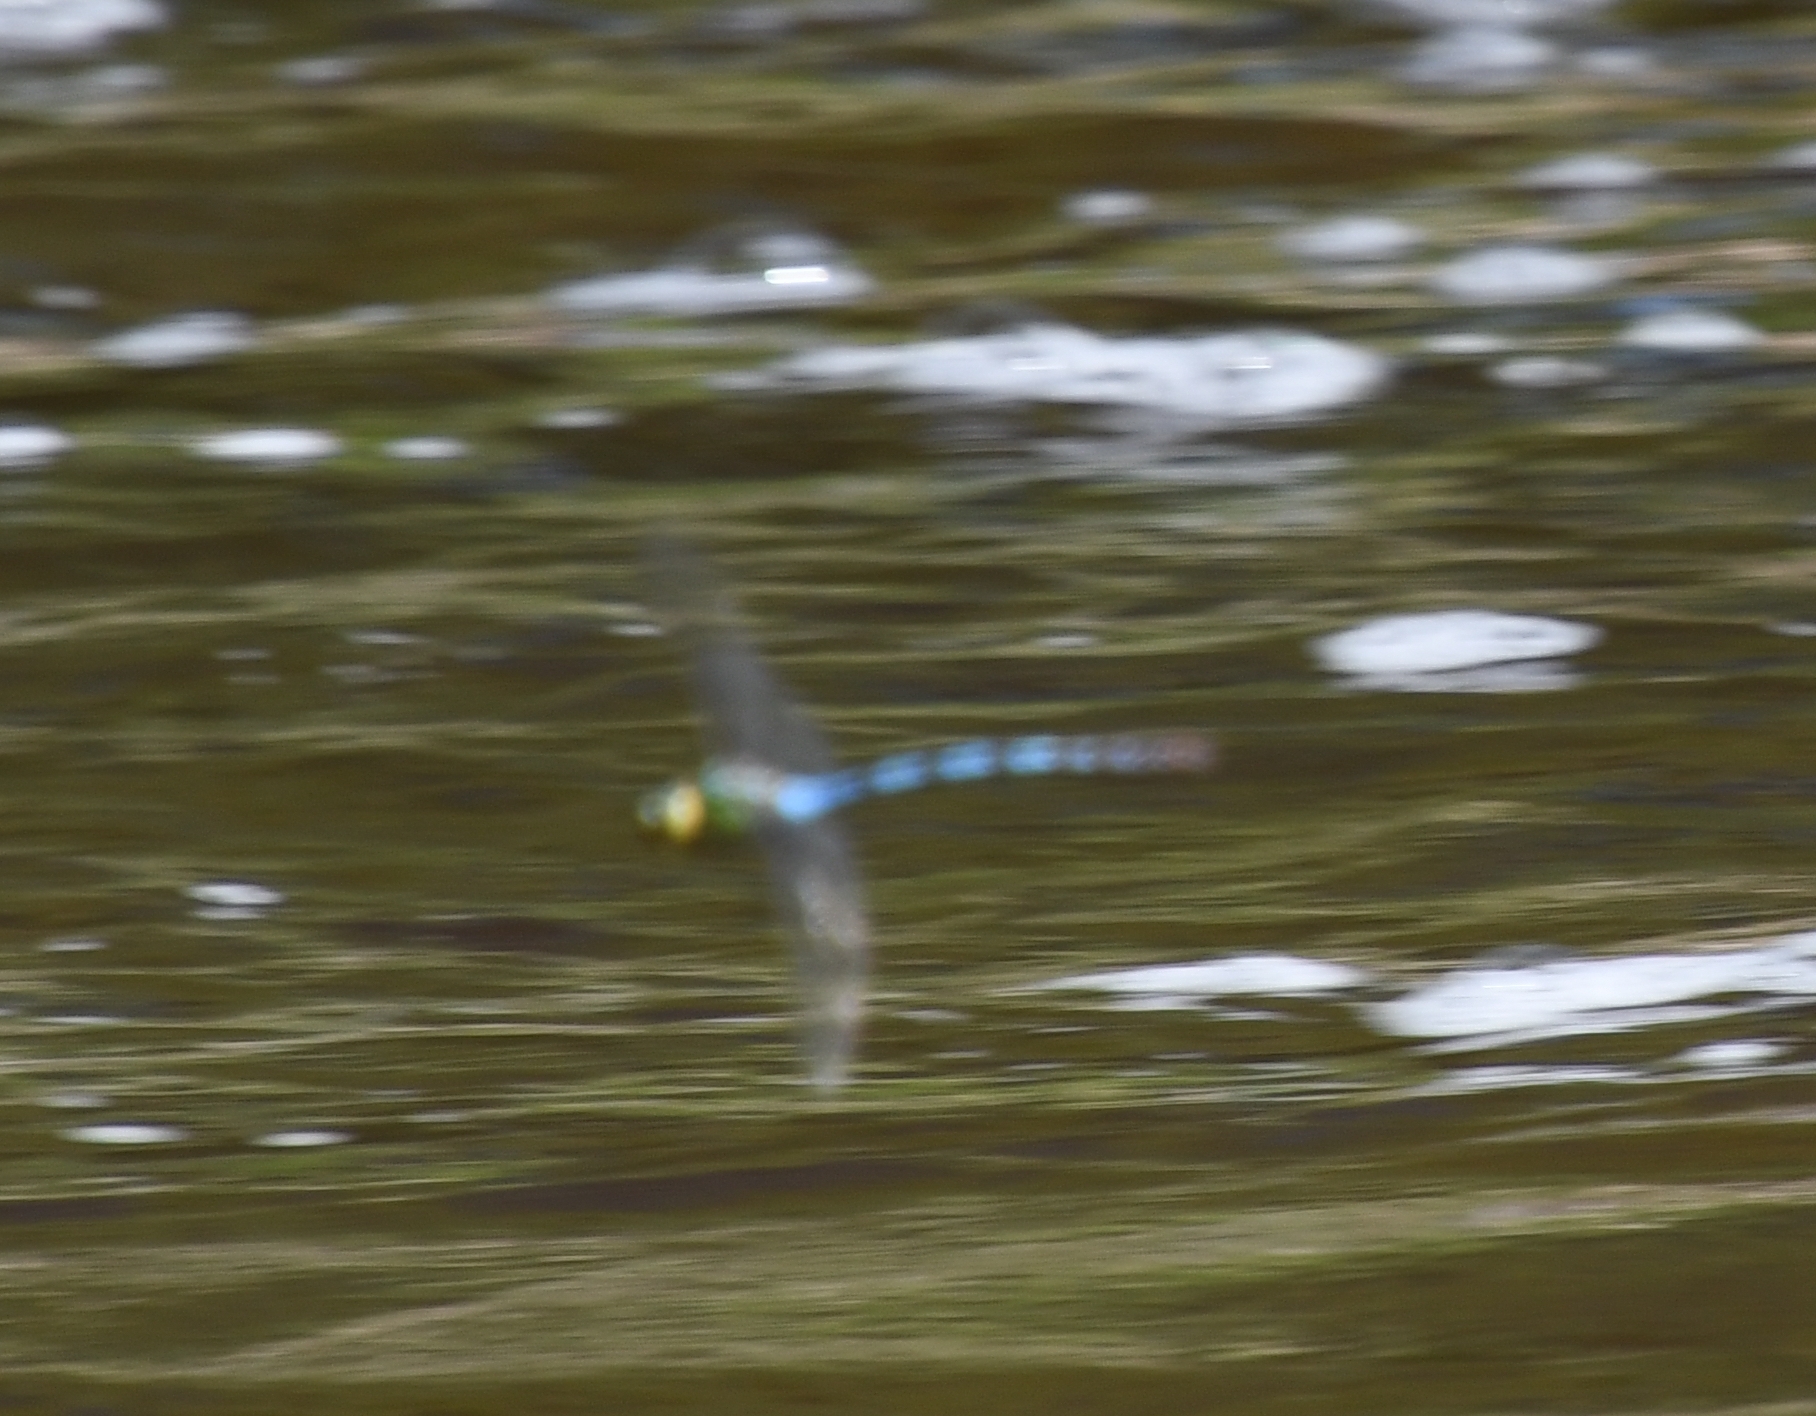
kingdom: Animalia
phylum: Arthropoda
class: Insecta
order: Odonata
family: Aeshnidae
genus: Anax
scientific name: Anax walsinghami
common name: Giant darner
